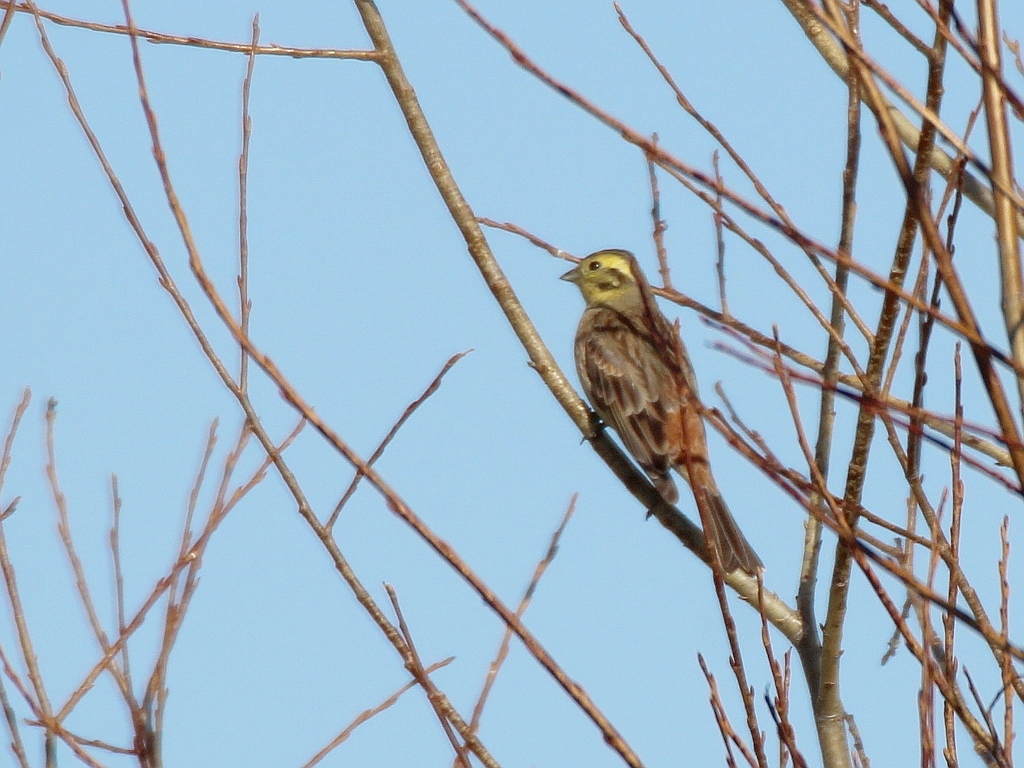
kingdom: Animalia
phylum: Chordata
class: Aves
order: Passeriformes
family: Emberizidae
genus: Emberiza
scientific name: Emberiza citrinella
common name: Yellowhammer
